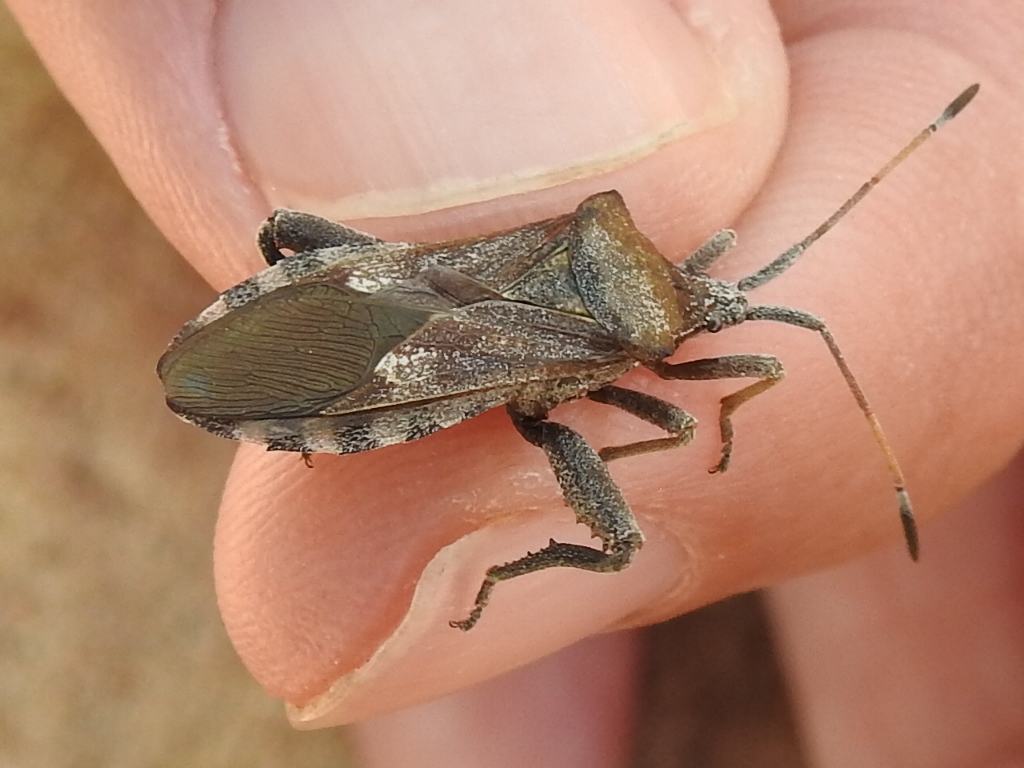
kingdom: Animalia
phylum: Arthropoda
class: Insecta
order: Hemiptera
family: Coreidae
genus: Mozena
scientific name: Mozena obtusa
